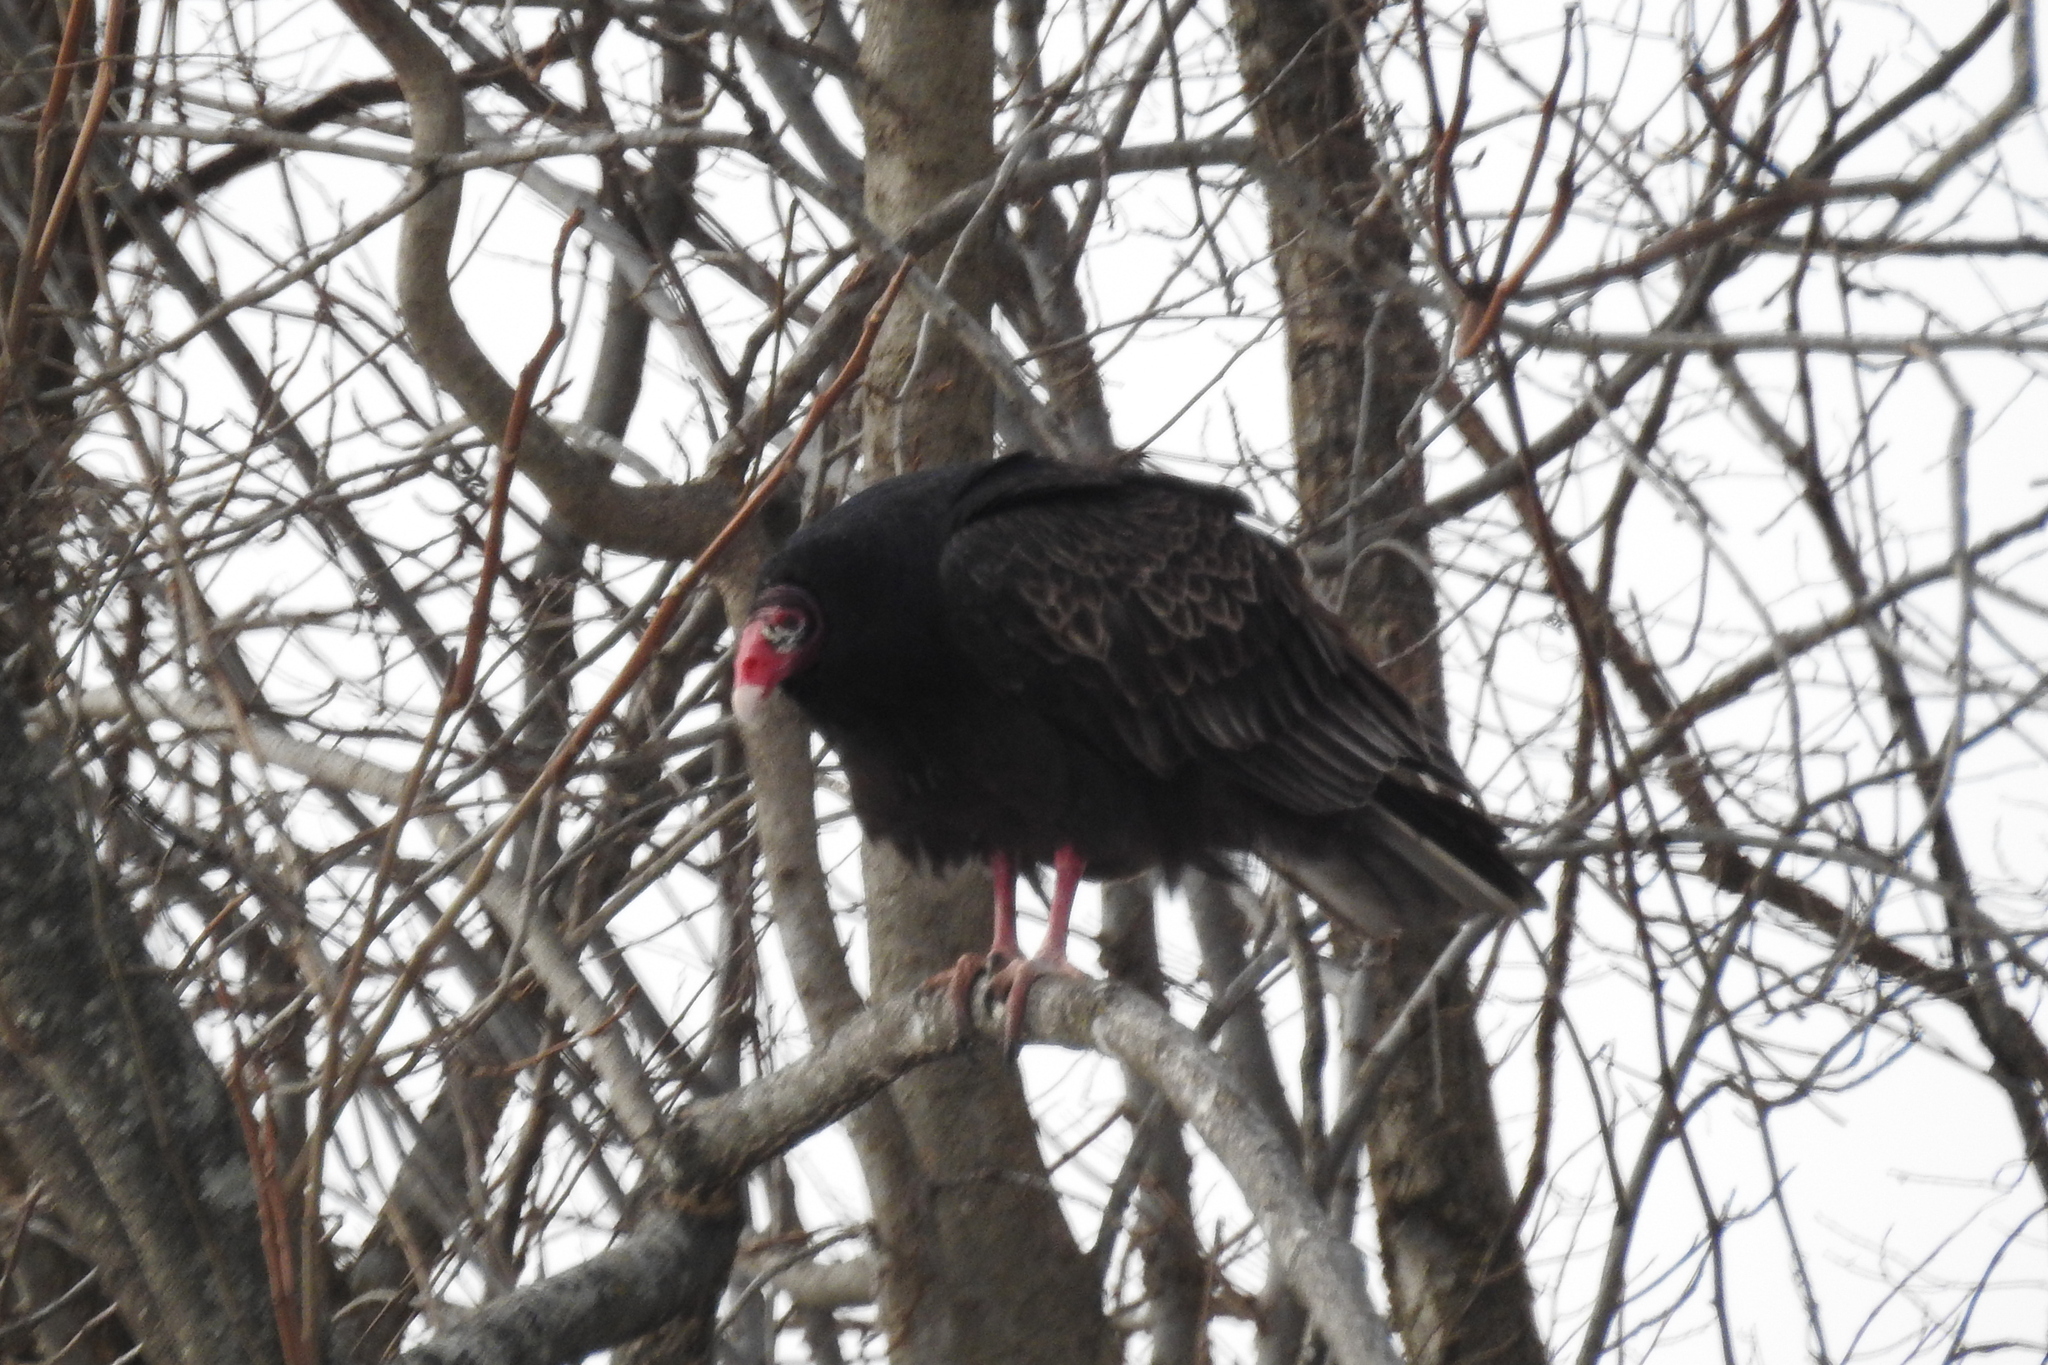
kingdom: Animalia
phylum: Chordata
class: Aves
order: Accipitriformes
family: Cathartidae
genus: Cathartes
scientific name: Cathartes aura
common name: Turkey vulture
